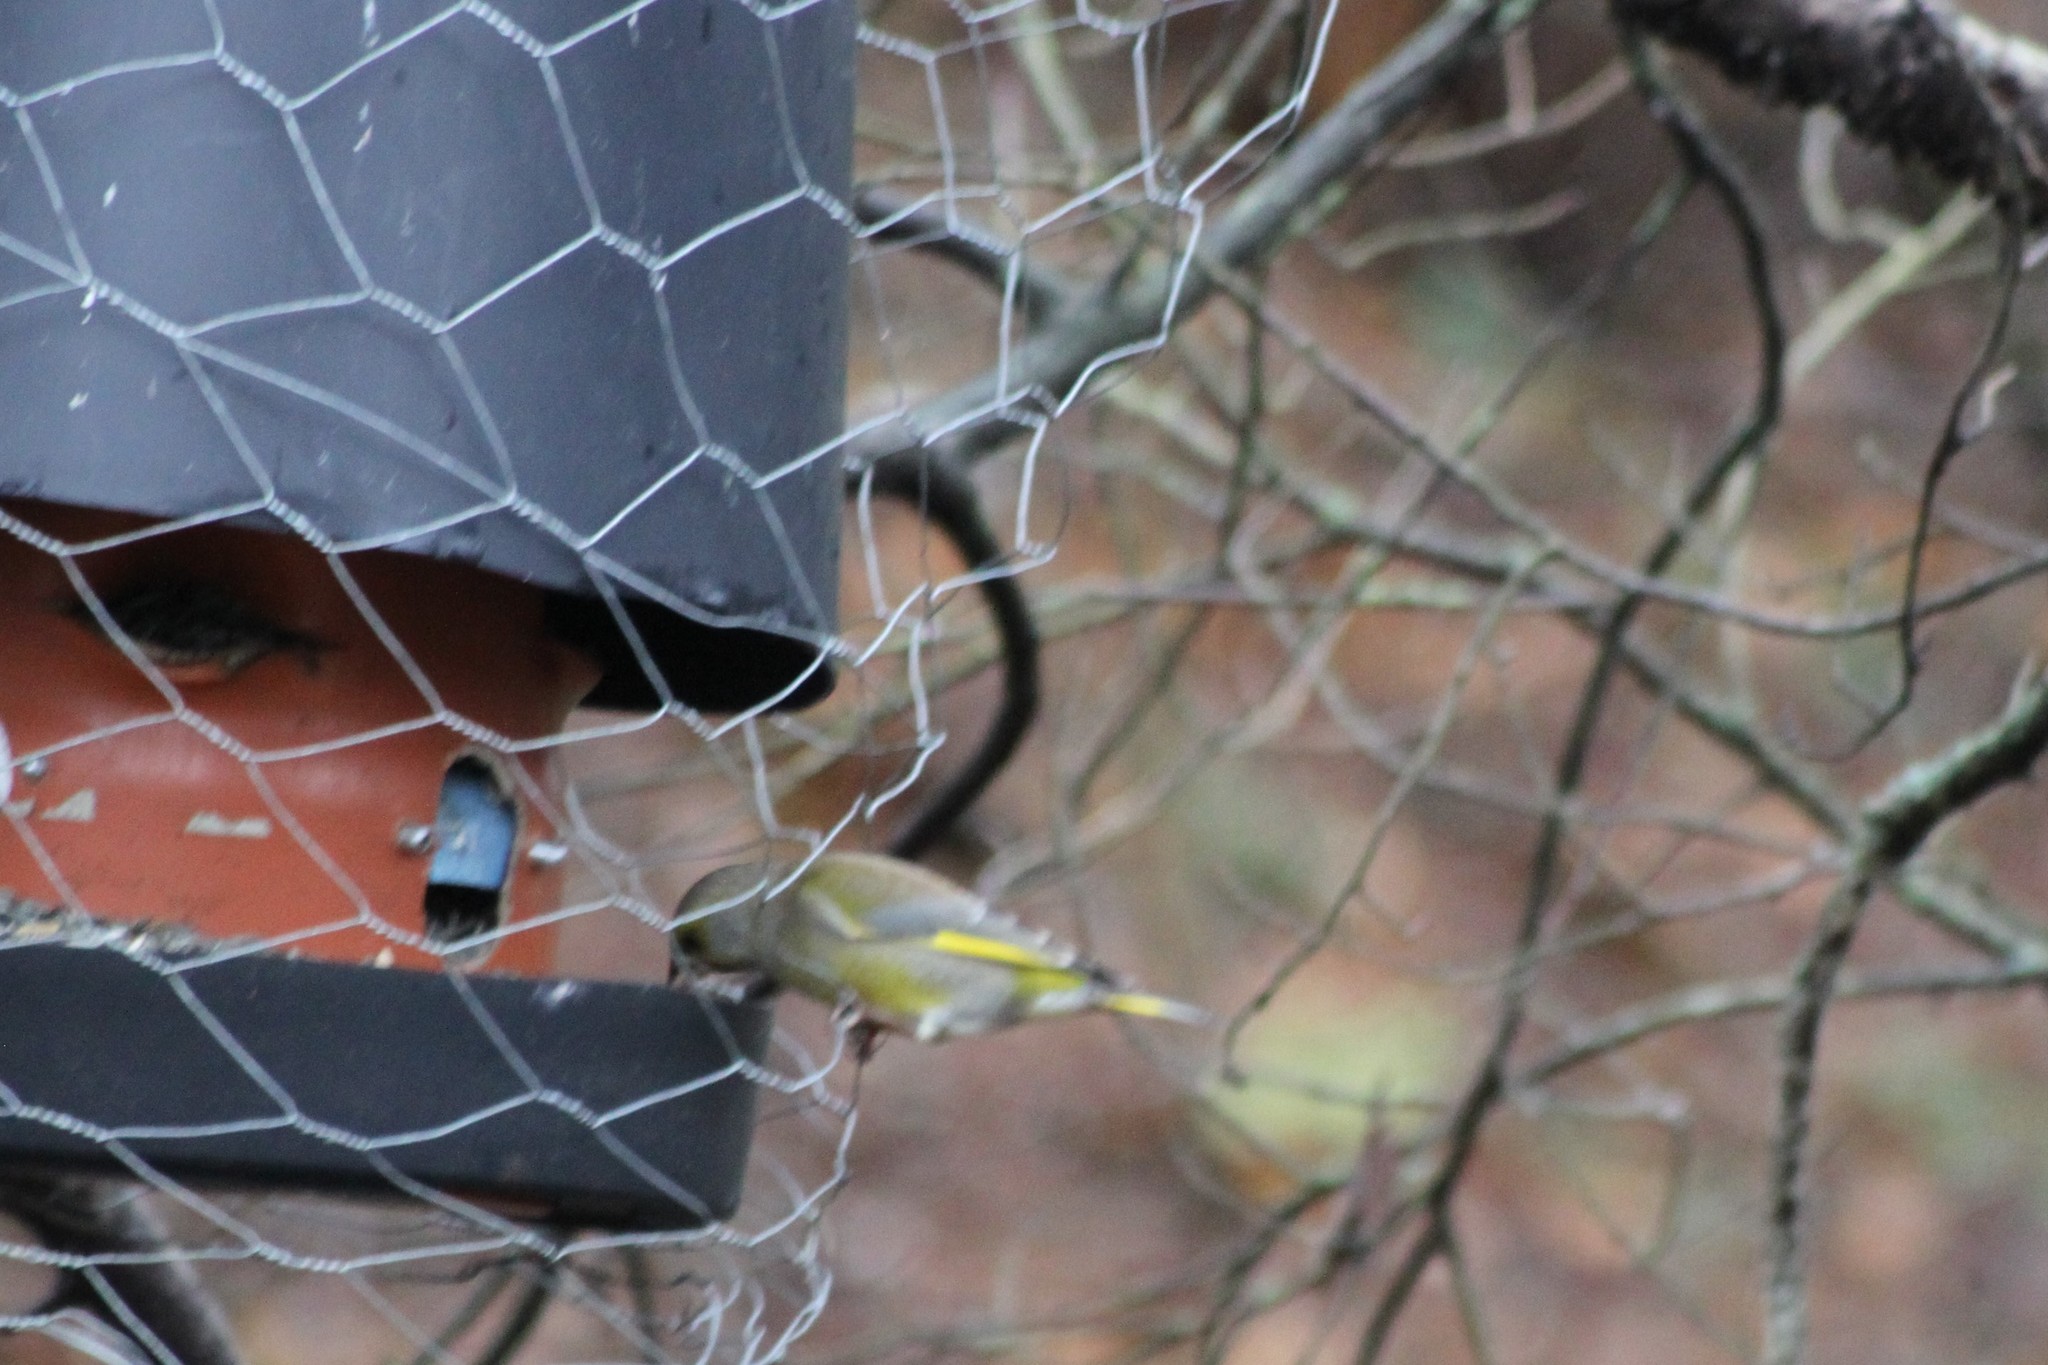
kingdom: Plantae
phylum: Tracheophyta
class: Liliopsida
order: Poales
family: Poaceae
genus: Chloris
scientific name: Chloris chloris
